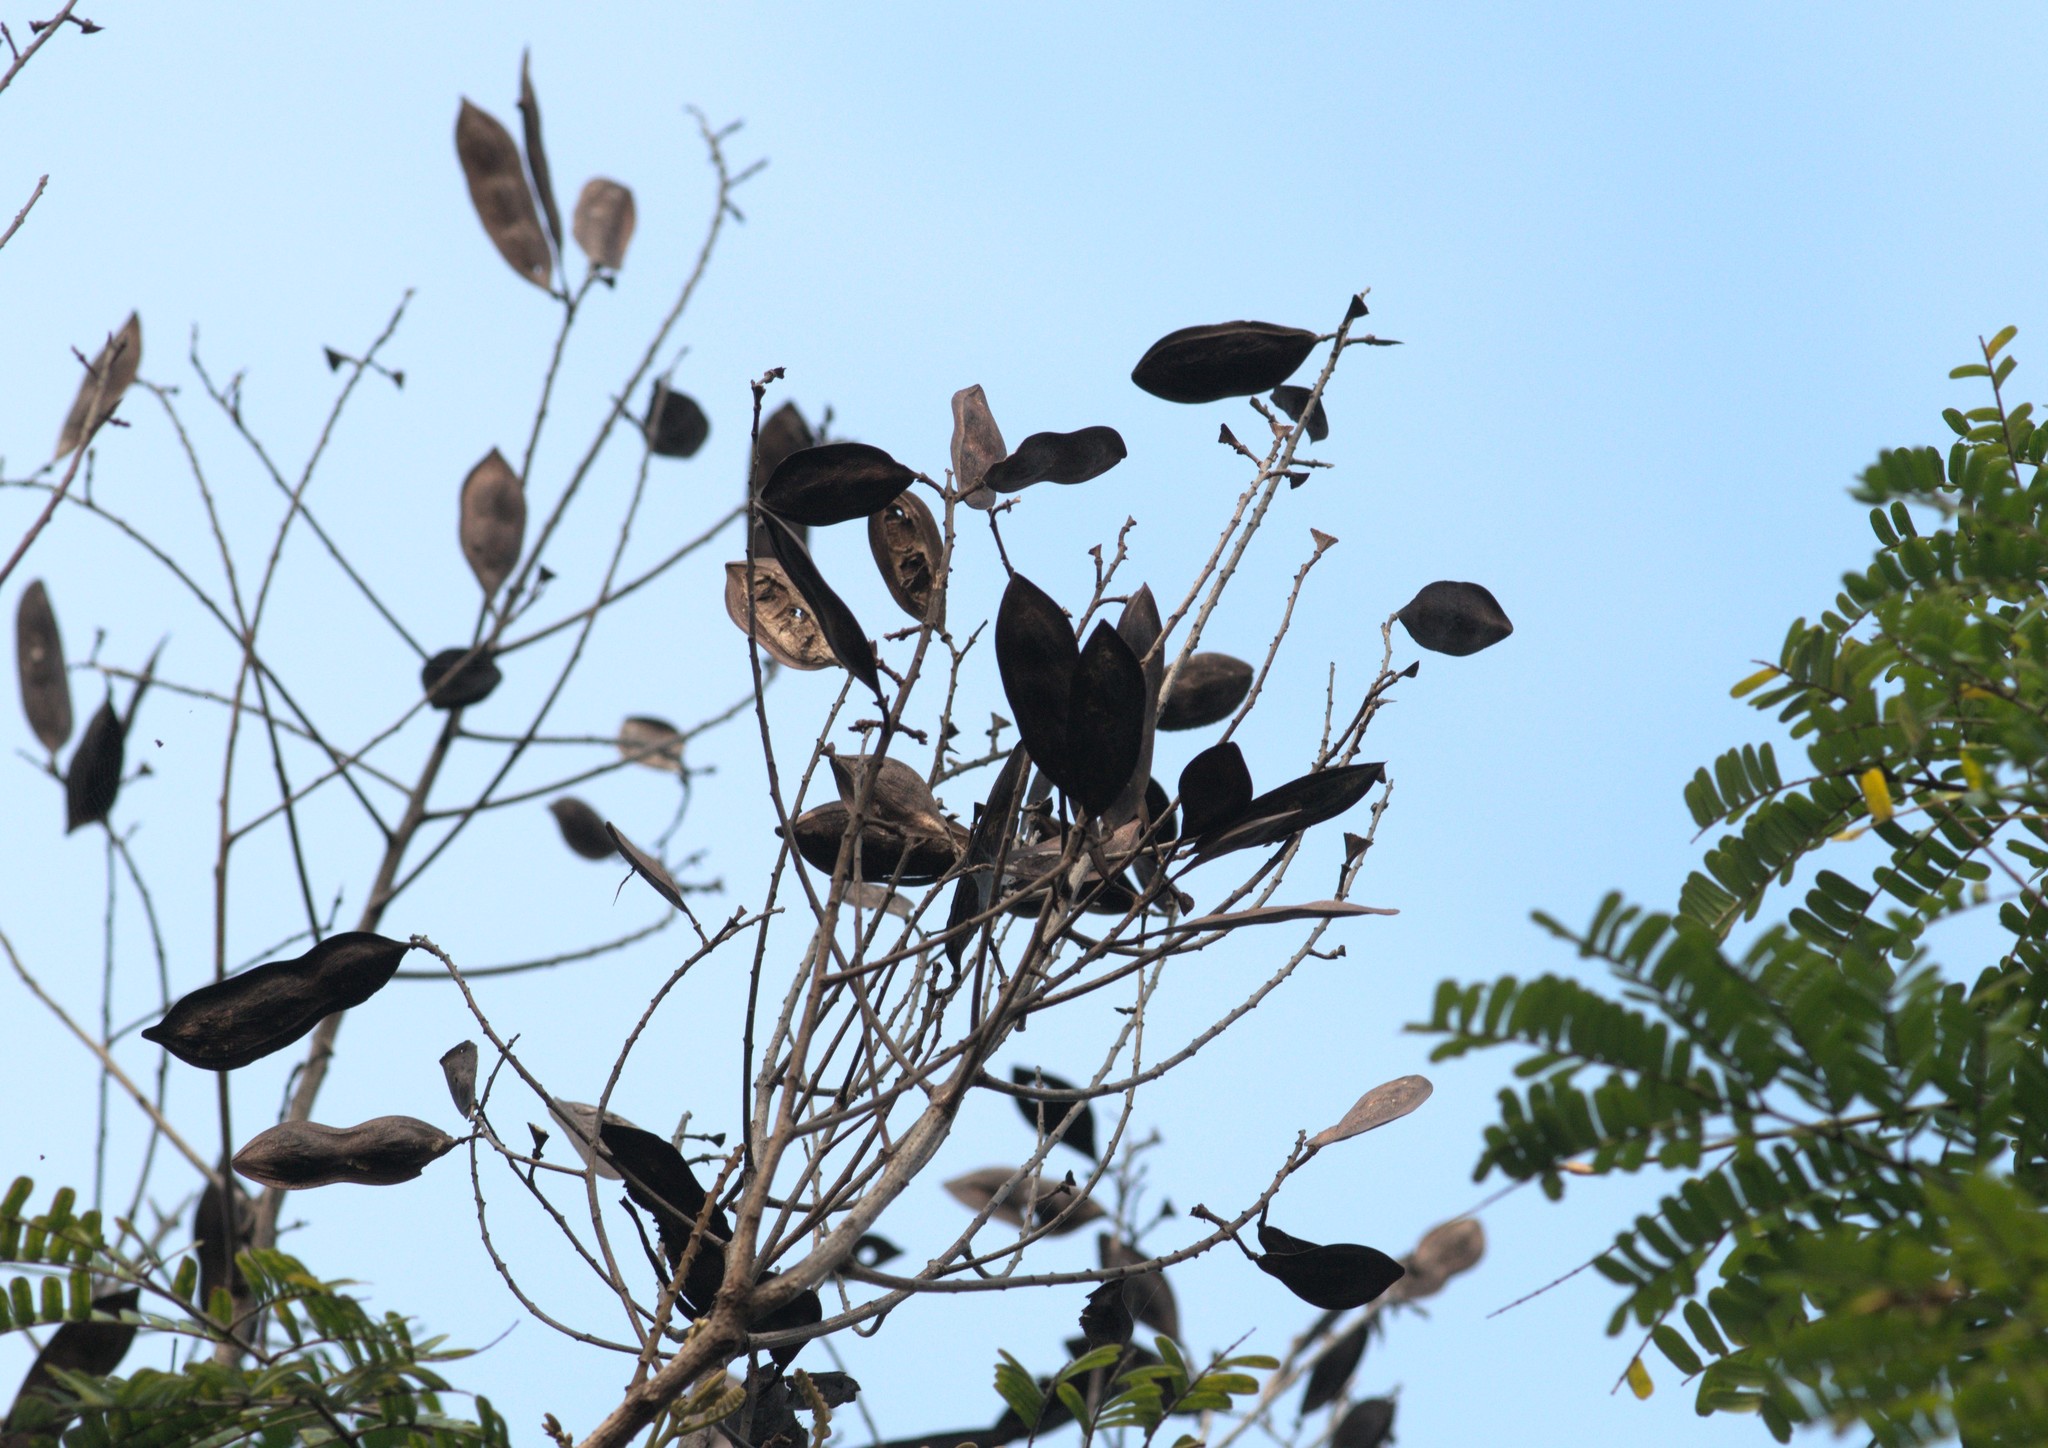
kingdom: Plantae
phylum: Tracheophyta
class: Magnoliopsida
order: Fabales
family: Fabaceae
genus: Peltophorum
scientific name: Peltophorum pterocarpum
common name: Yellow flame
